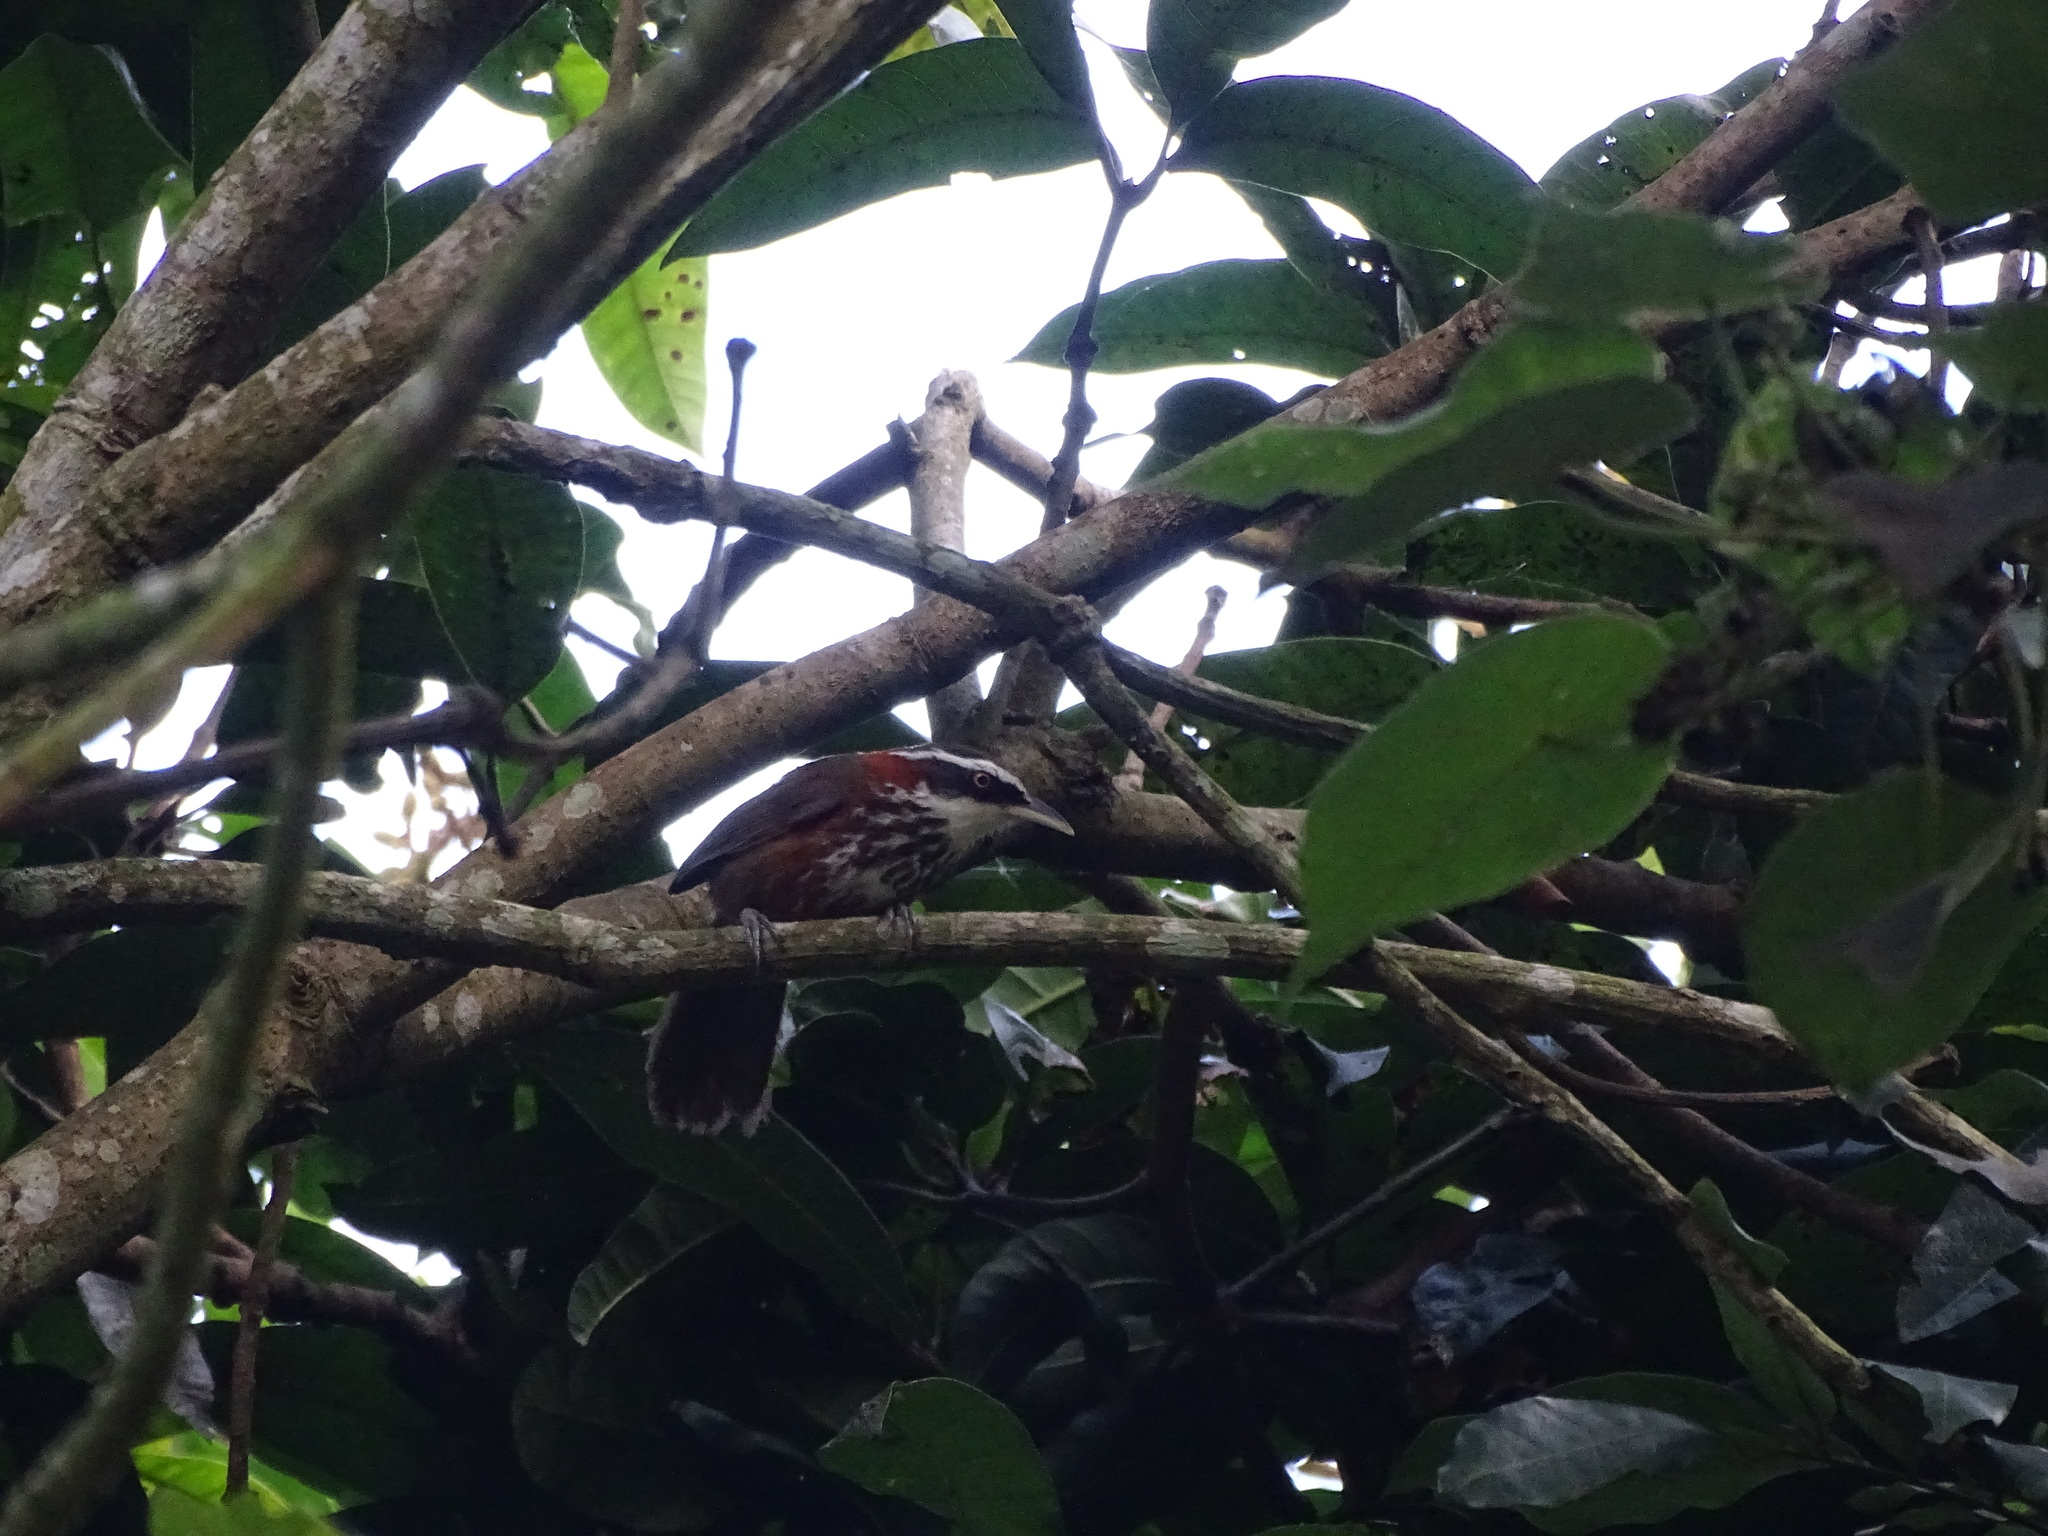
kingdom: Animalia
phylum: Chordata
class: Aves
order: Passeriformes
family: Timaliidae
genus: Pomatorhinus
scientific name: Pomatorhinus musicus
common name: Taiwan scimitar-babbler
